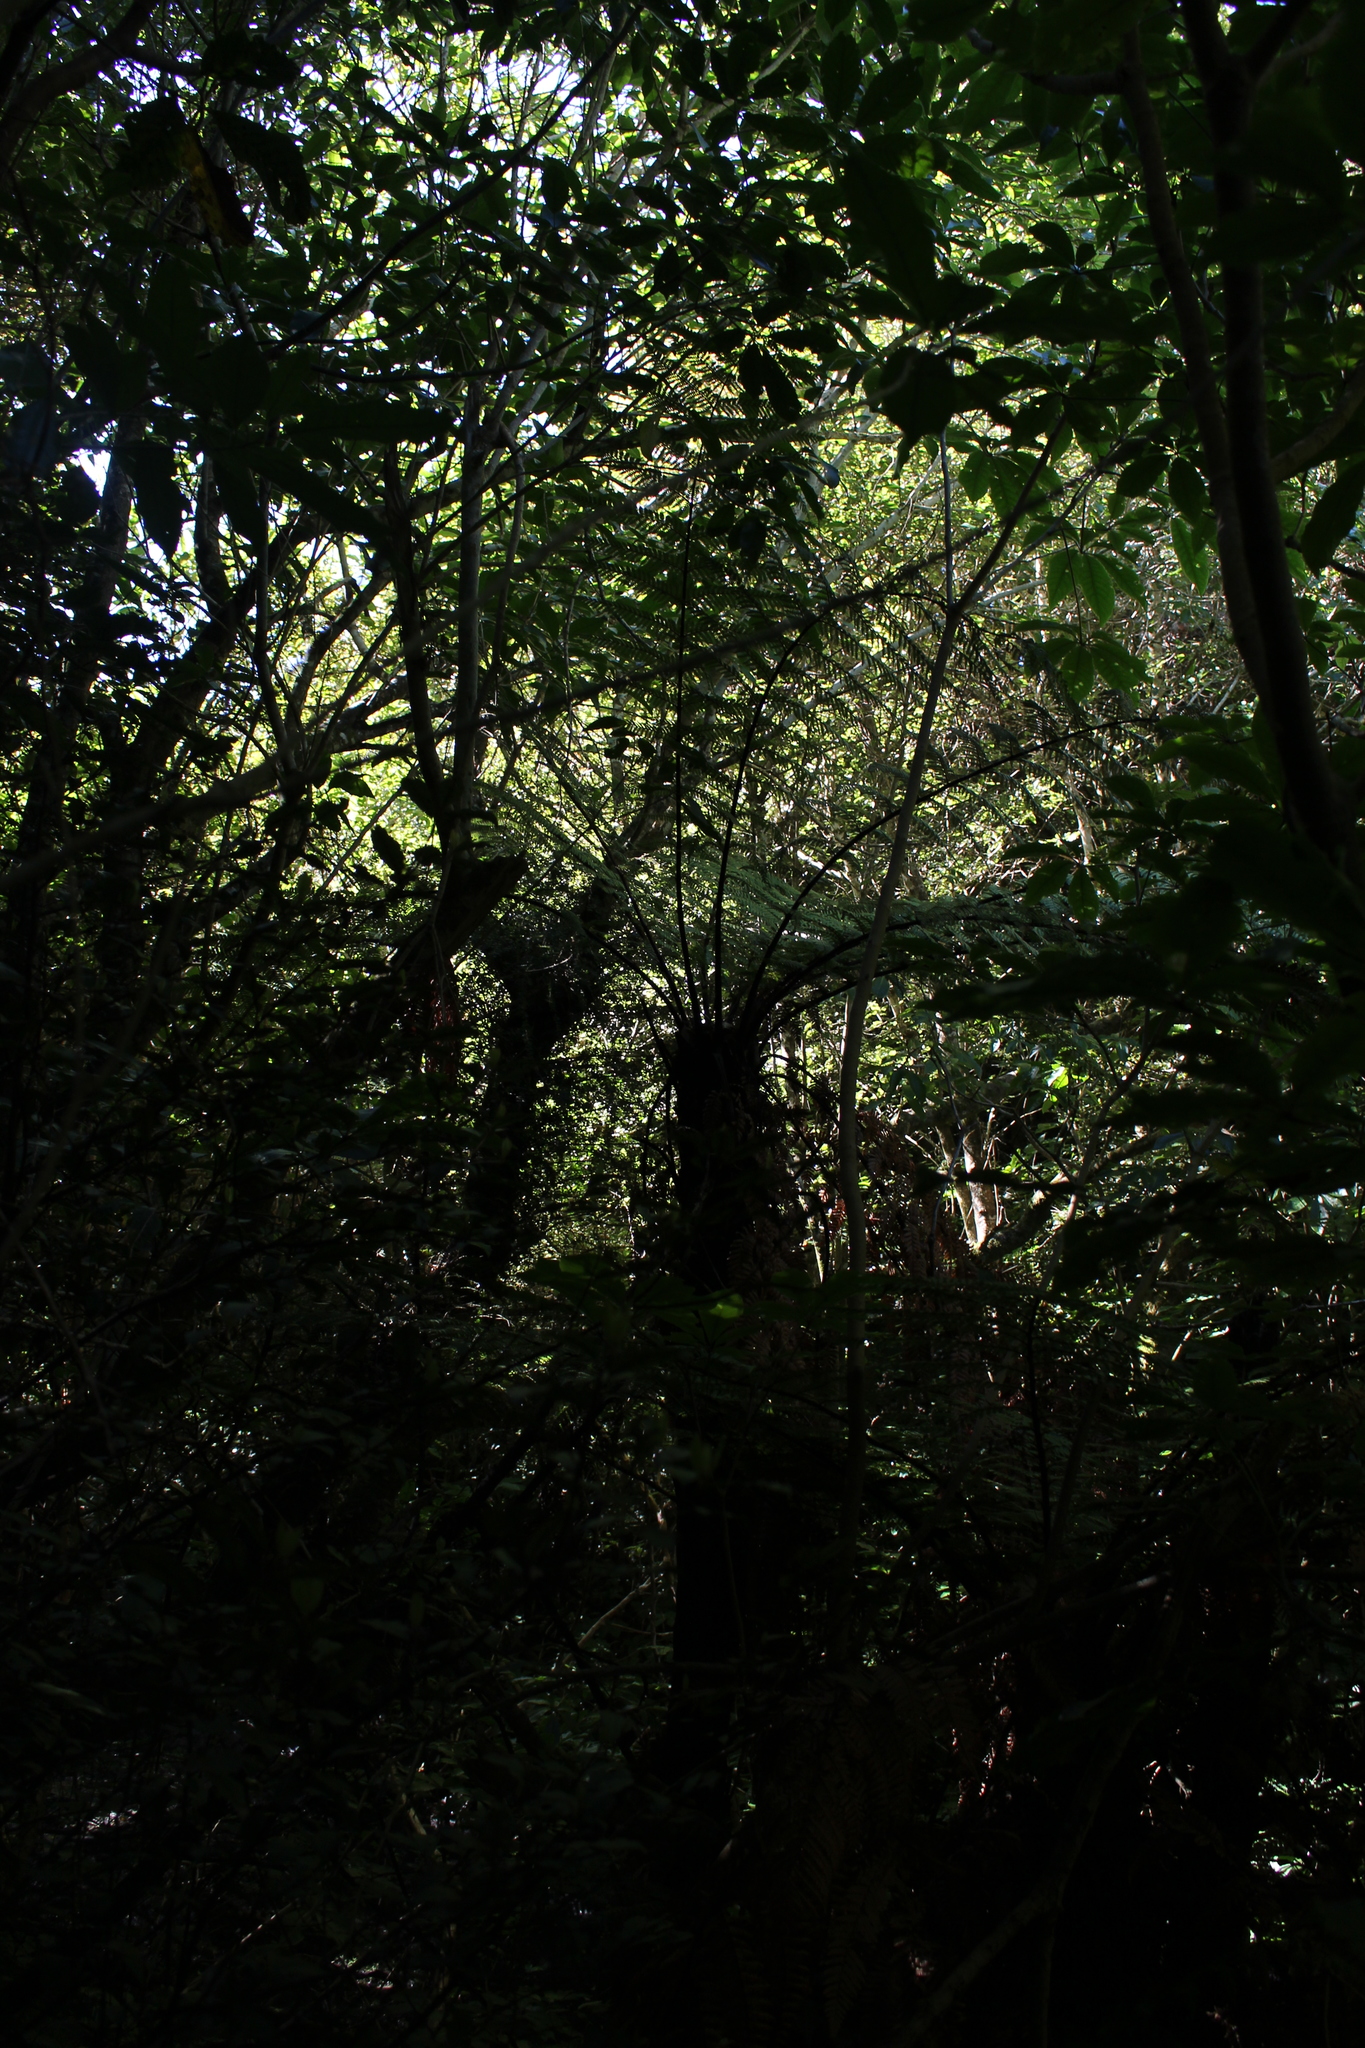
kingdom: Plantae
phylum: Tracheophyta
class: Polypodiopsida
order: Cyatheales
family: Dicksoniaceae
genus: Dicksonia
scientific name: Dicksonia squarrosa
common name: Hard treefern
